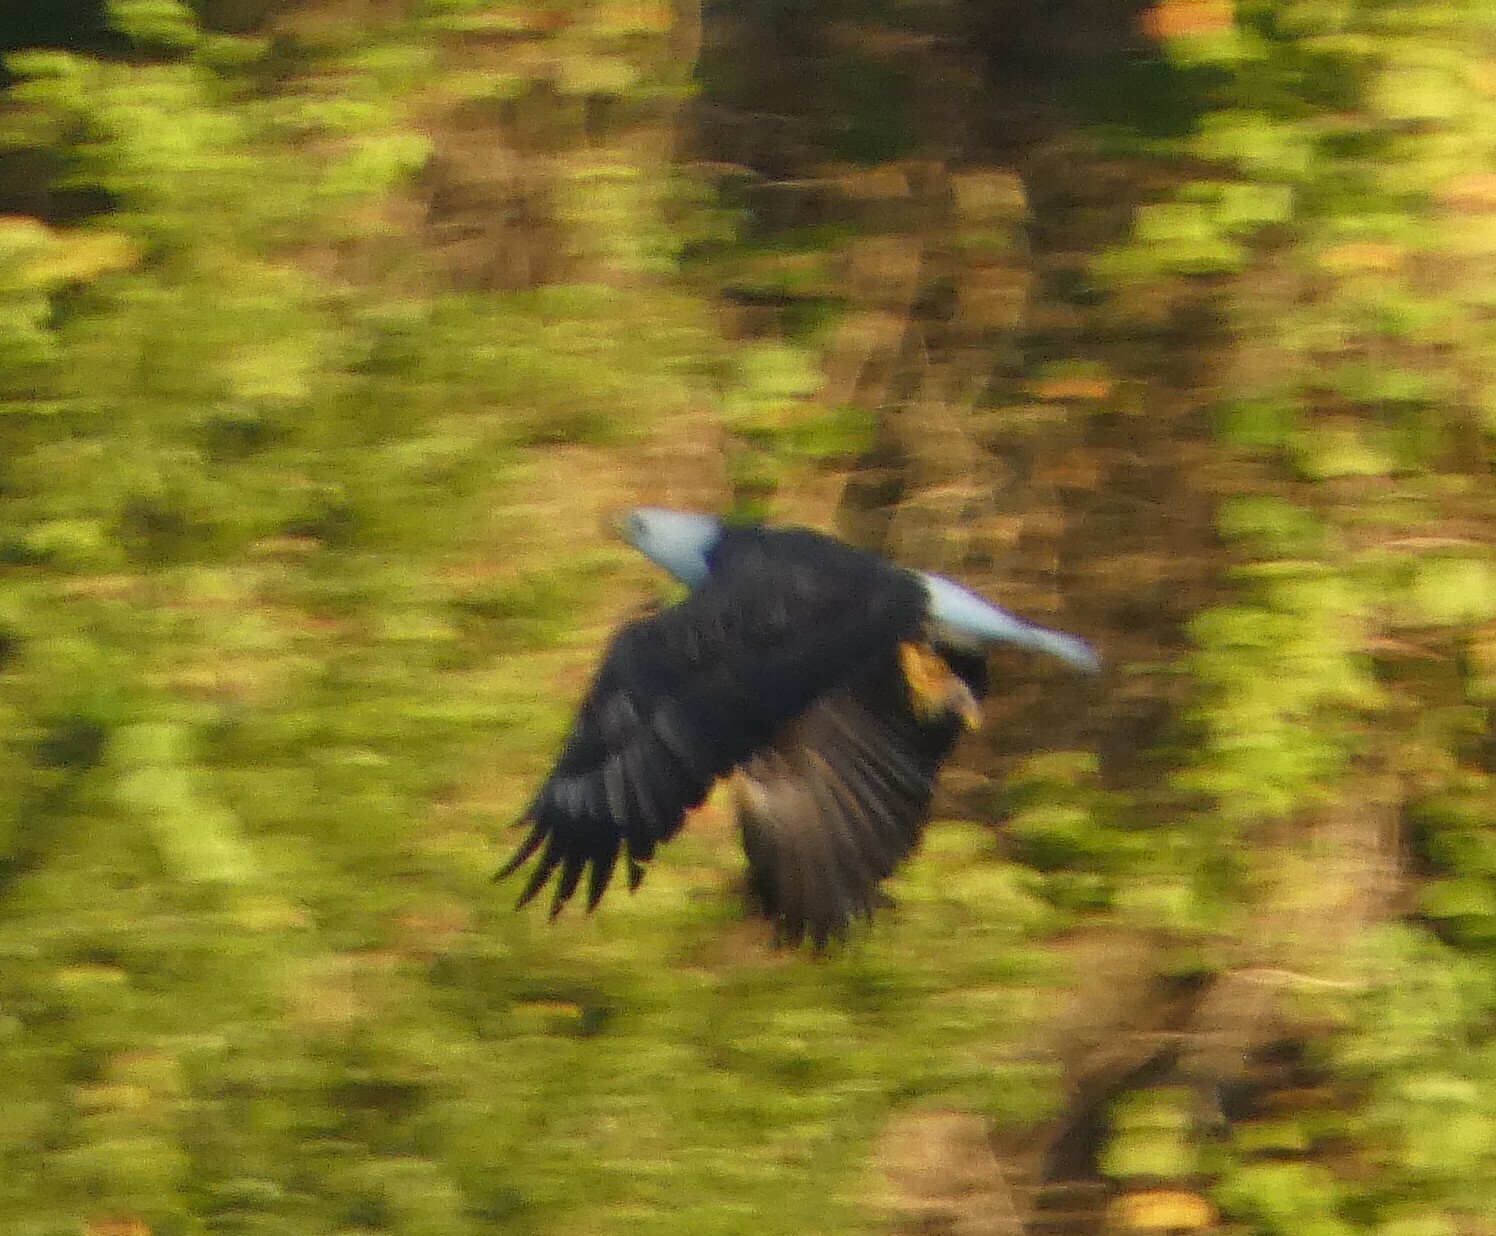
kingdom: Animalia
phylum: Chordata
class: Aves
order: Accipitriformes
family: Accipitridae
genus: Haliaeetus
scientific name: Haliaeetus leucocephalus
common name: Bald eagle
